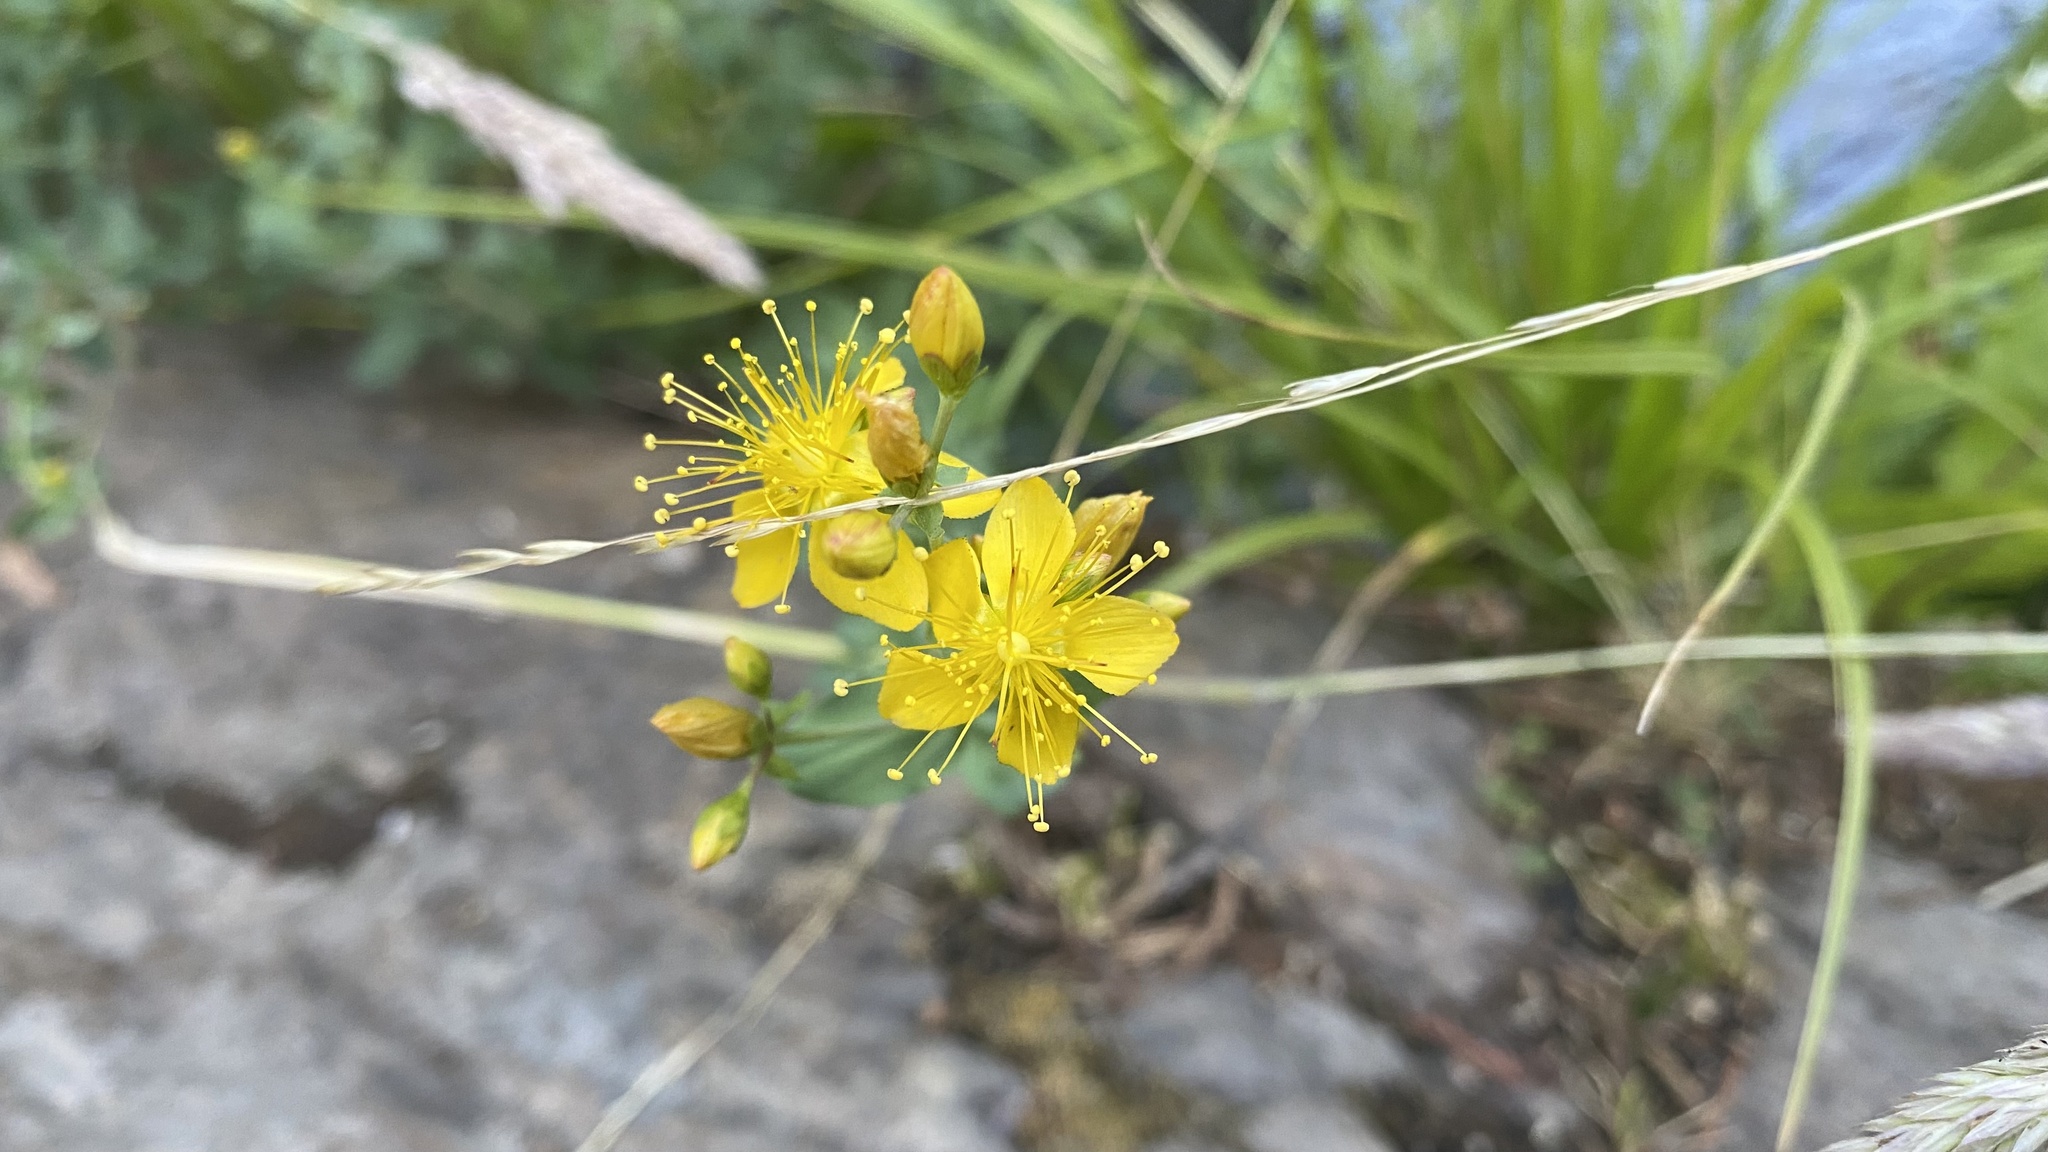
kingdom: Plantae
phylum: Tracheophyta
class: Magnoliopsida
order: Malpighiales
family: Hypericaceae
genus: Hypericum
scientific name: Hypericum scouleri
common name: Scouler's st. john's-wort
